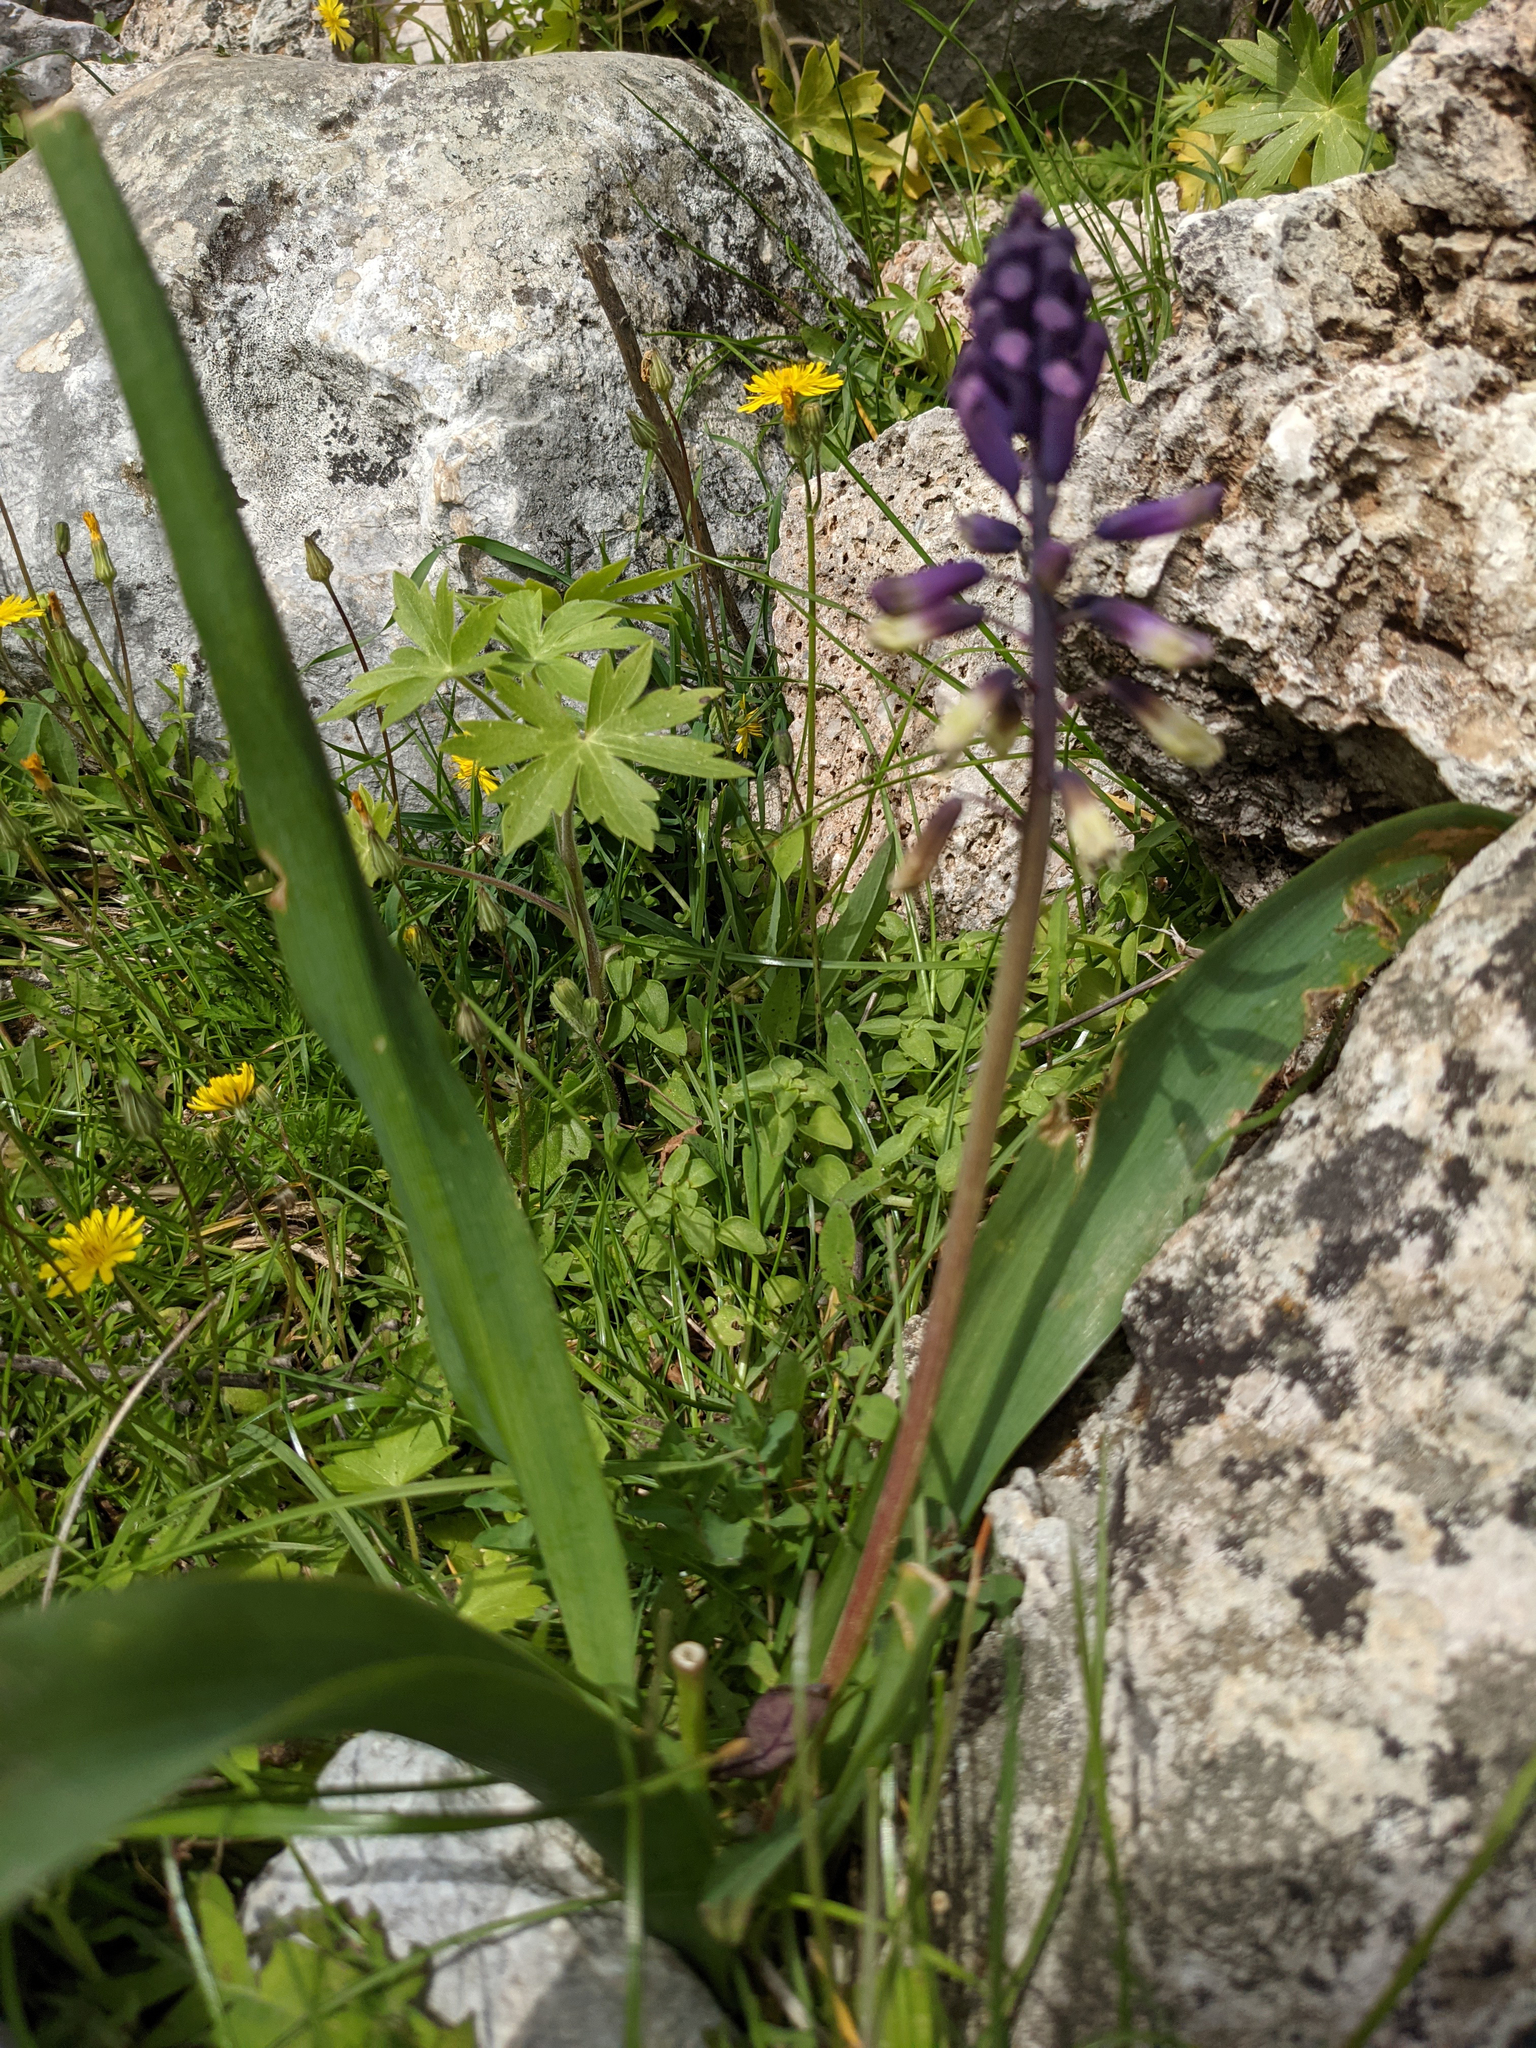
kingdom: Plantae
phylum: Tracheophyta
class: Liliopsida
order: Asparagales
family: Asparagaceae
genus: Bellevalia
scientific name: Bellevalia trifoliata
